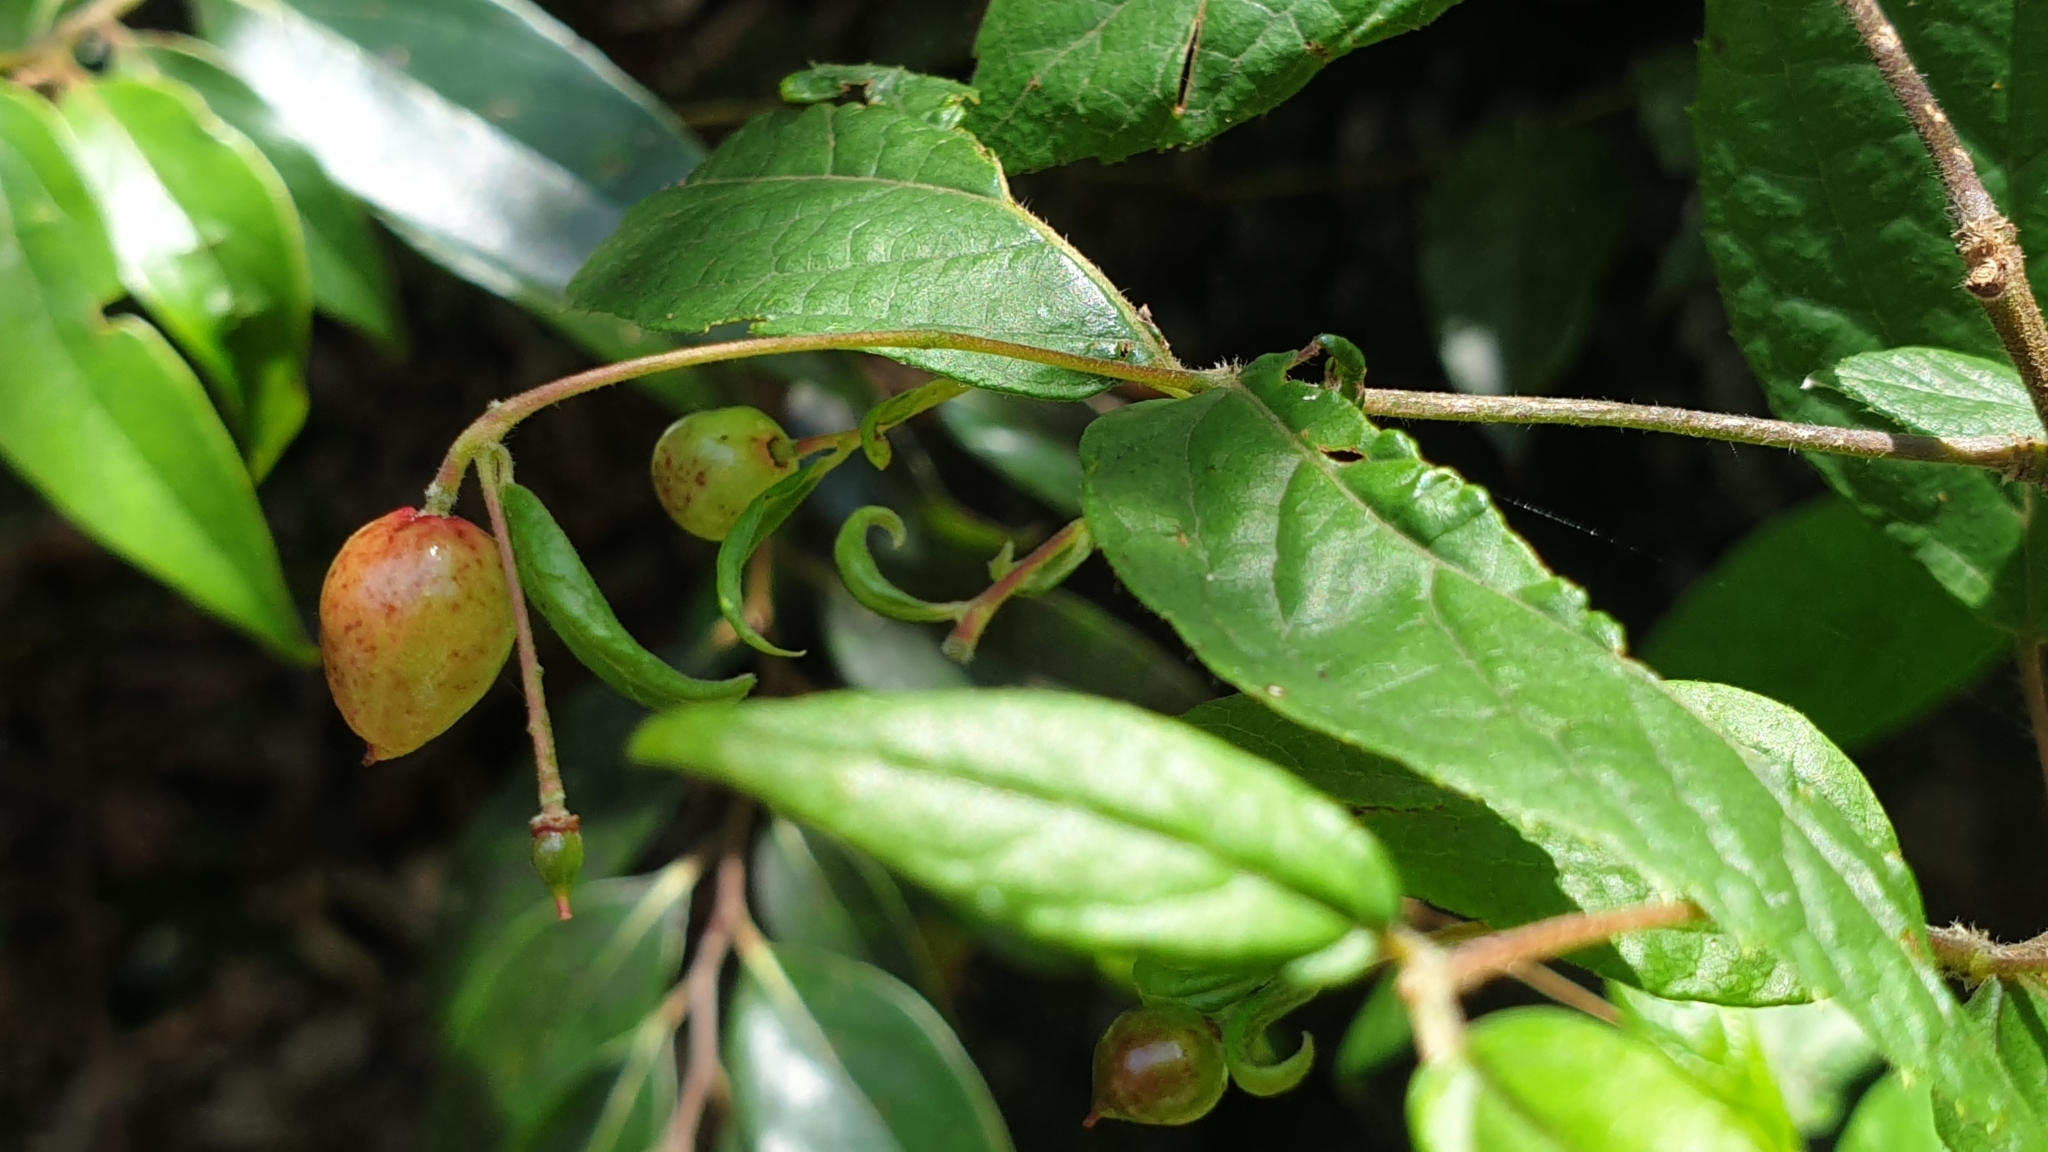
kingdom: Plantae
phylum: Tracheophyta
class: Magnoliopsida
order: Oxalidales
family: Elaeocarpaceae
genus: Aristotelia
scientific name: Aristotelia australasica
